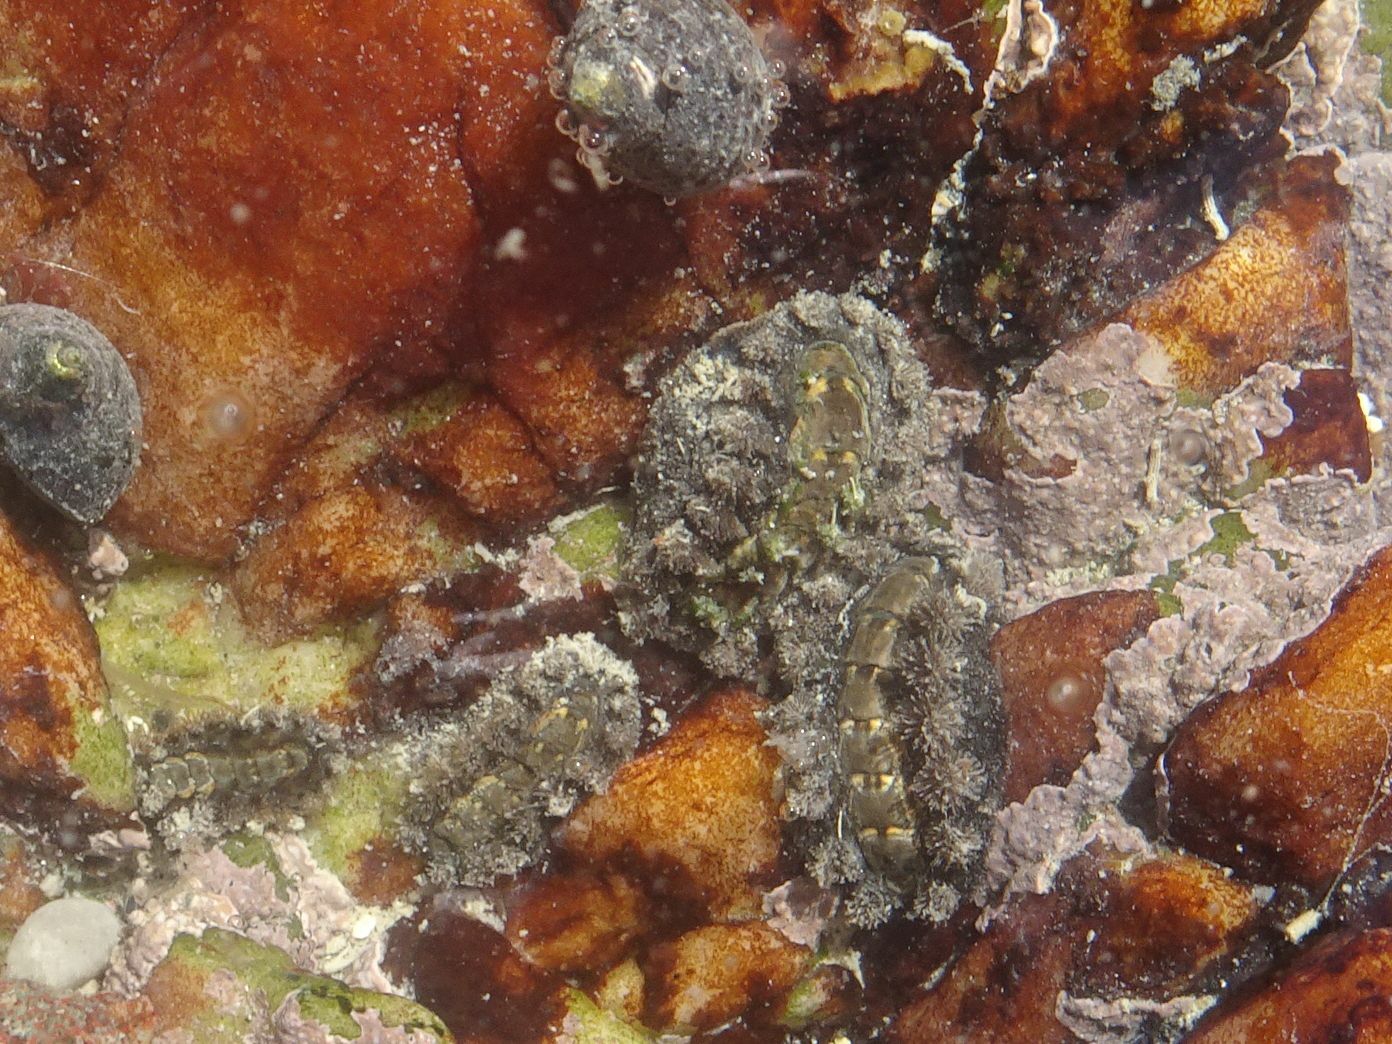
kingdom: Animalia
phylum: Mollusca
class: Polyplacophora
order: Chitonida
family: Acanthochitonidae
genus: Acanthochitona
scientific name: Acanthochitona garnoti
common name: Spiny chiton
